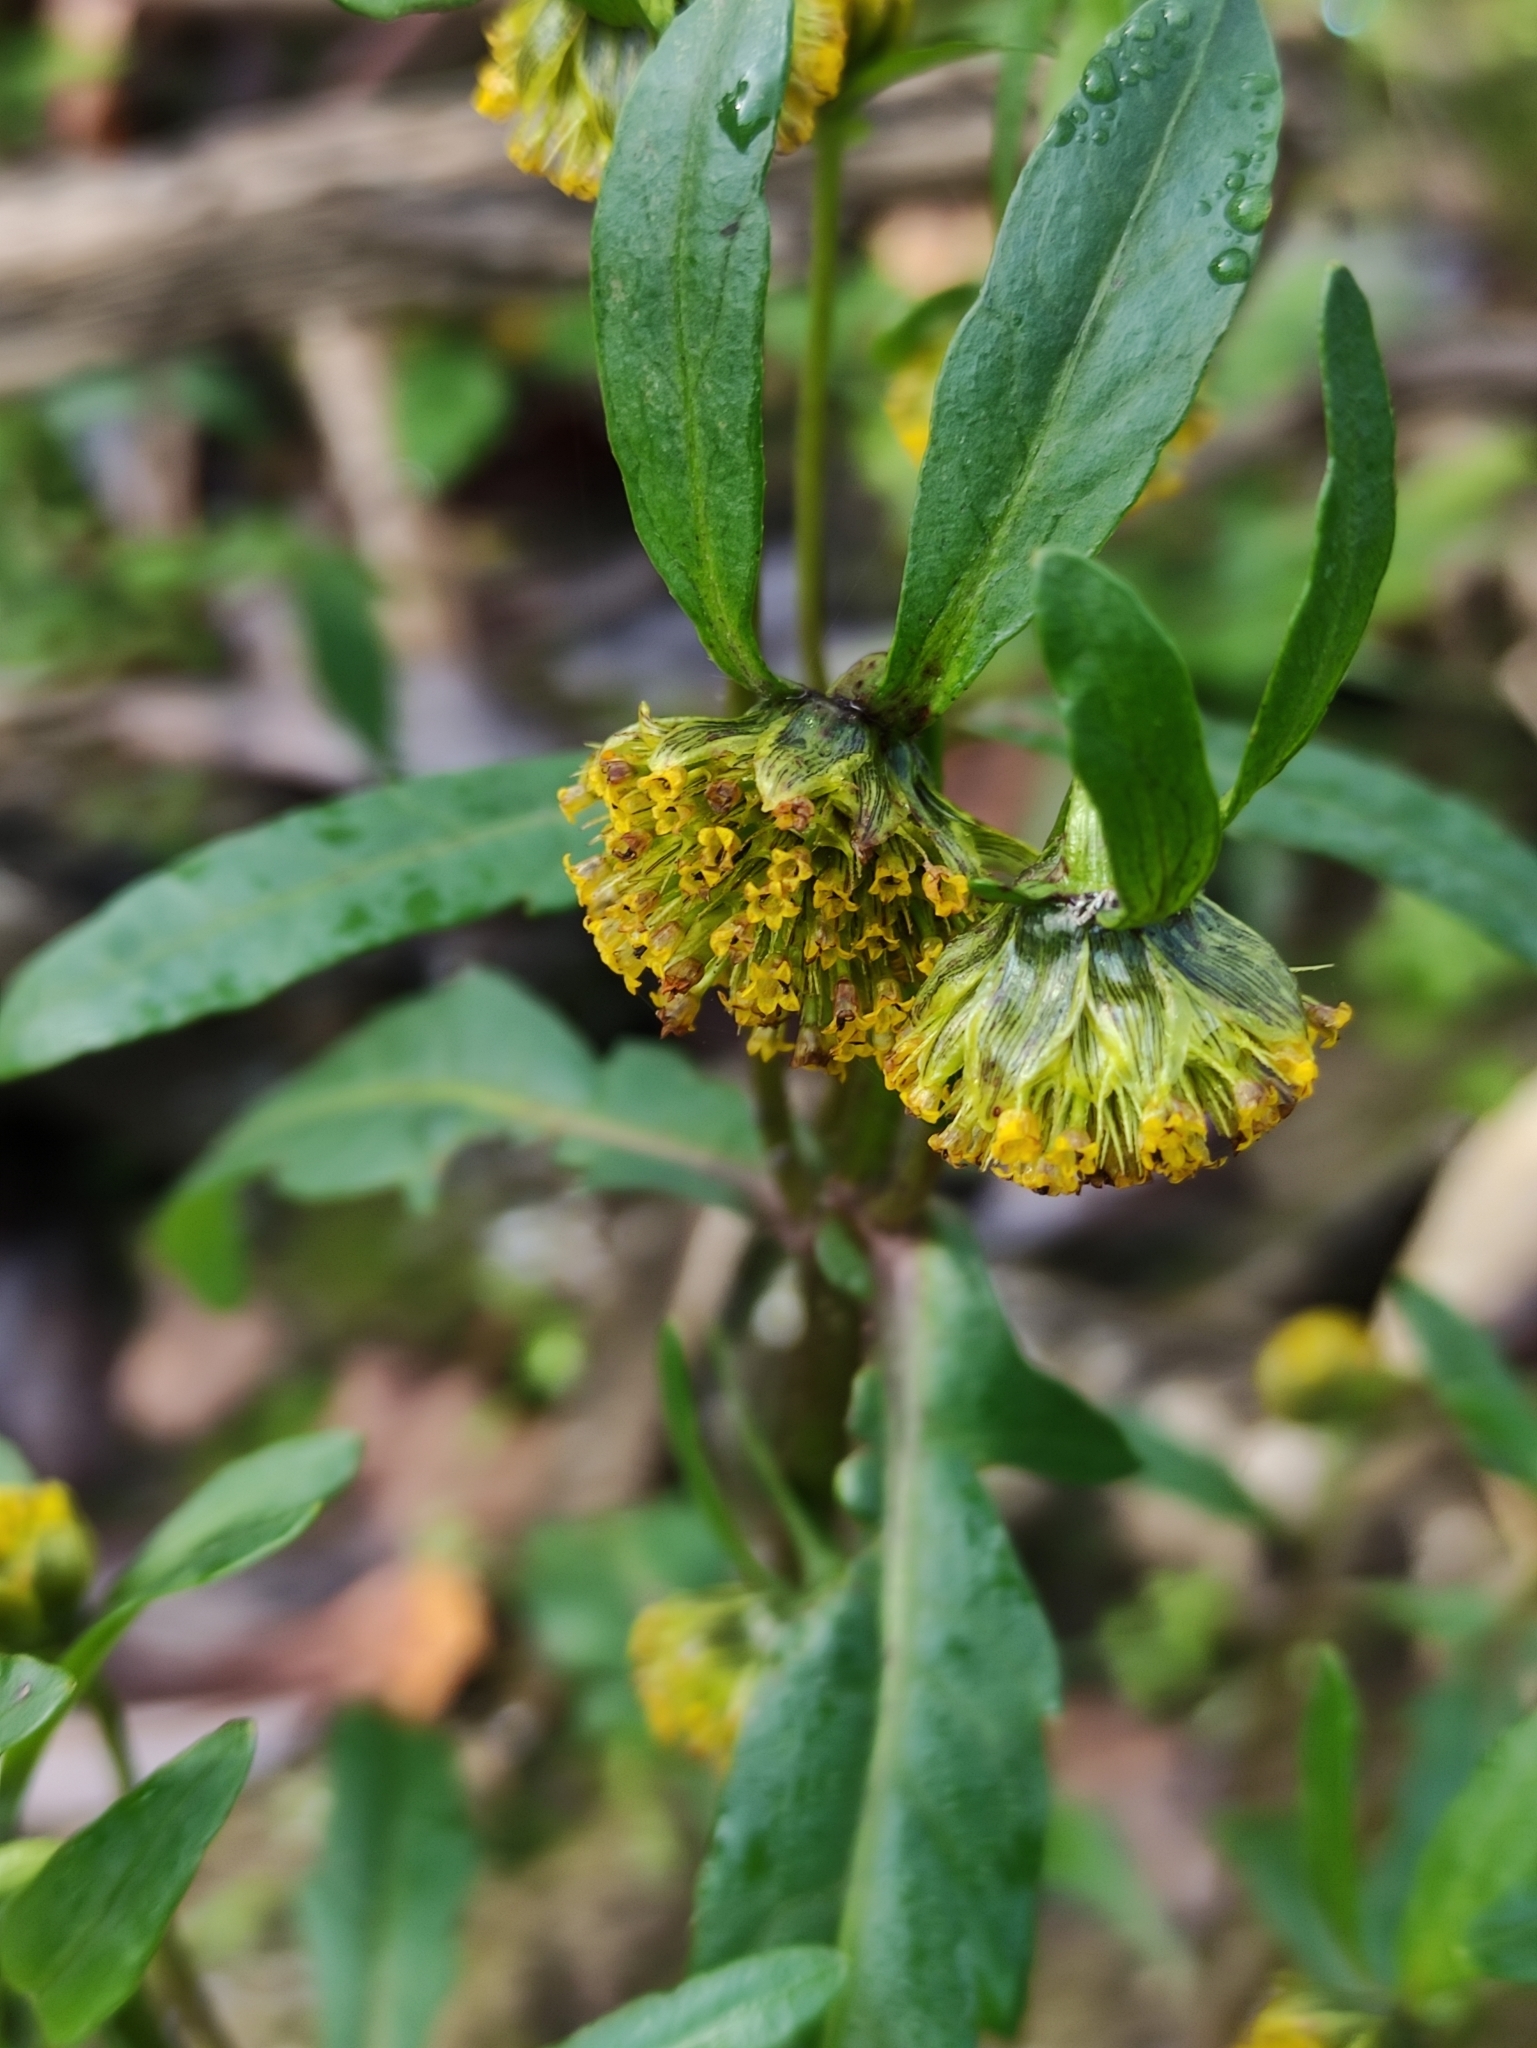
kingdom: Plantae
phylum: Tracheophyta
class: Magnoliopsida
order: Asterales
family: Asteraceae
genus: Bidens
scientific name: Bidens cernua
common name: Nodding bur-marigold
